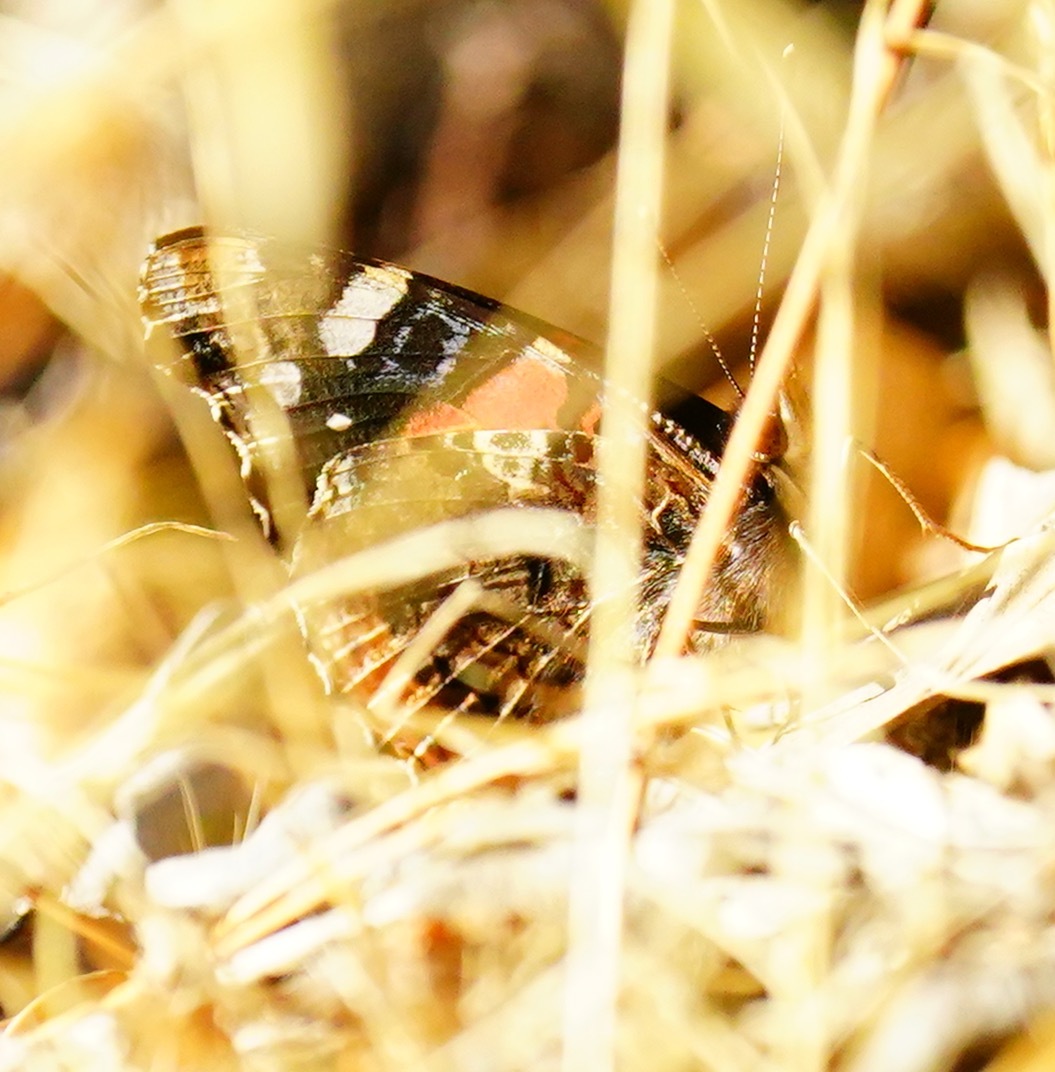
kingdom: Animalia
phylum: Arthropoda
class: Insecta
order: Lepidoptera
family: Nymphalidae
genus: Vanessa
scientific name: Vanessa atalanta
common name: Red admiral
